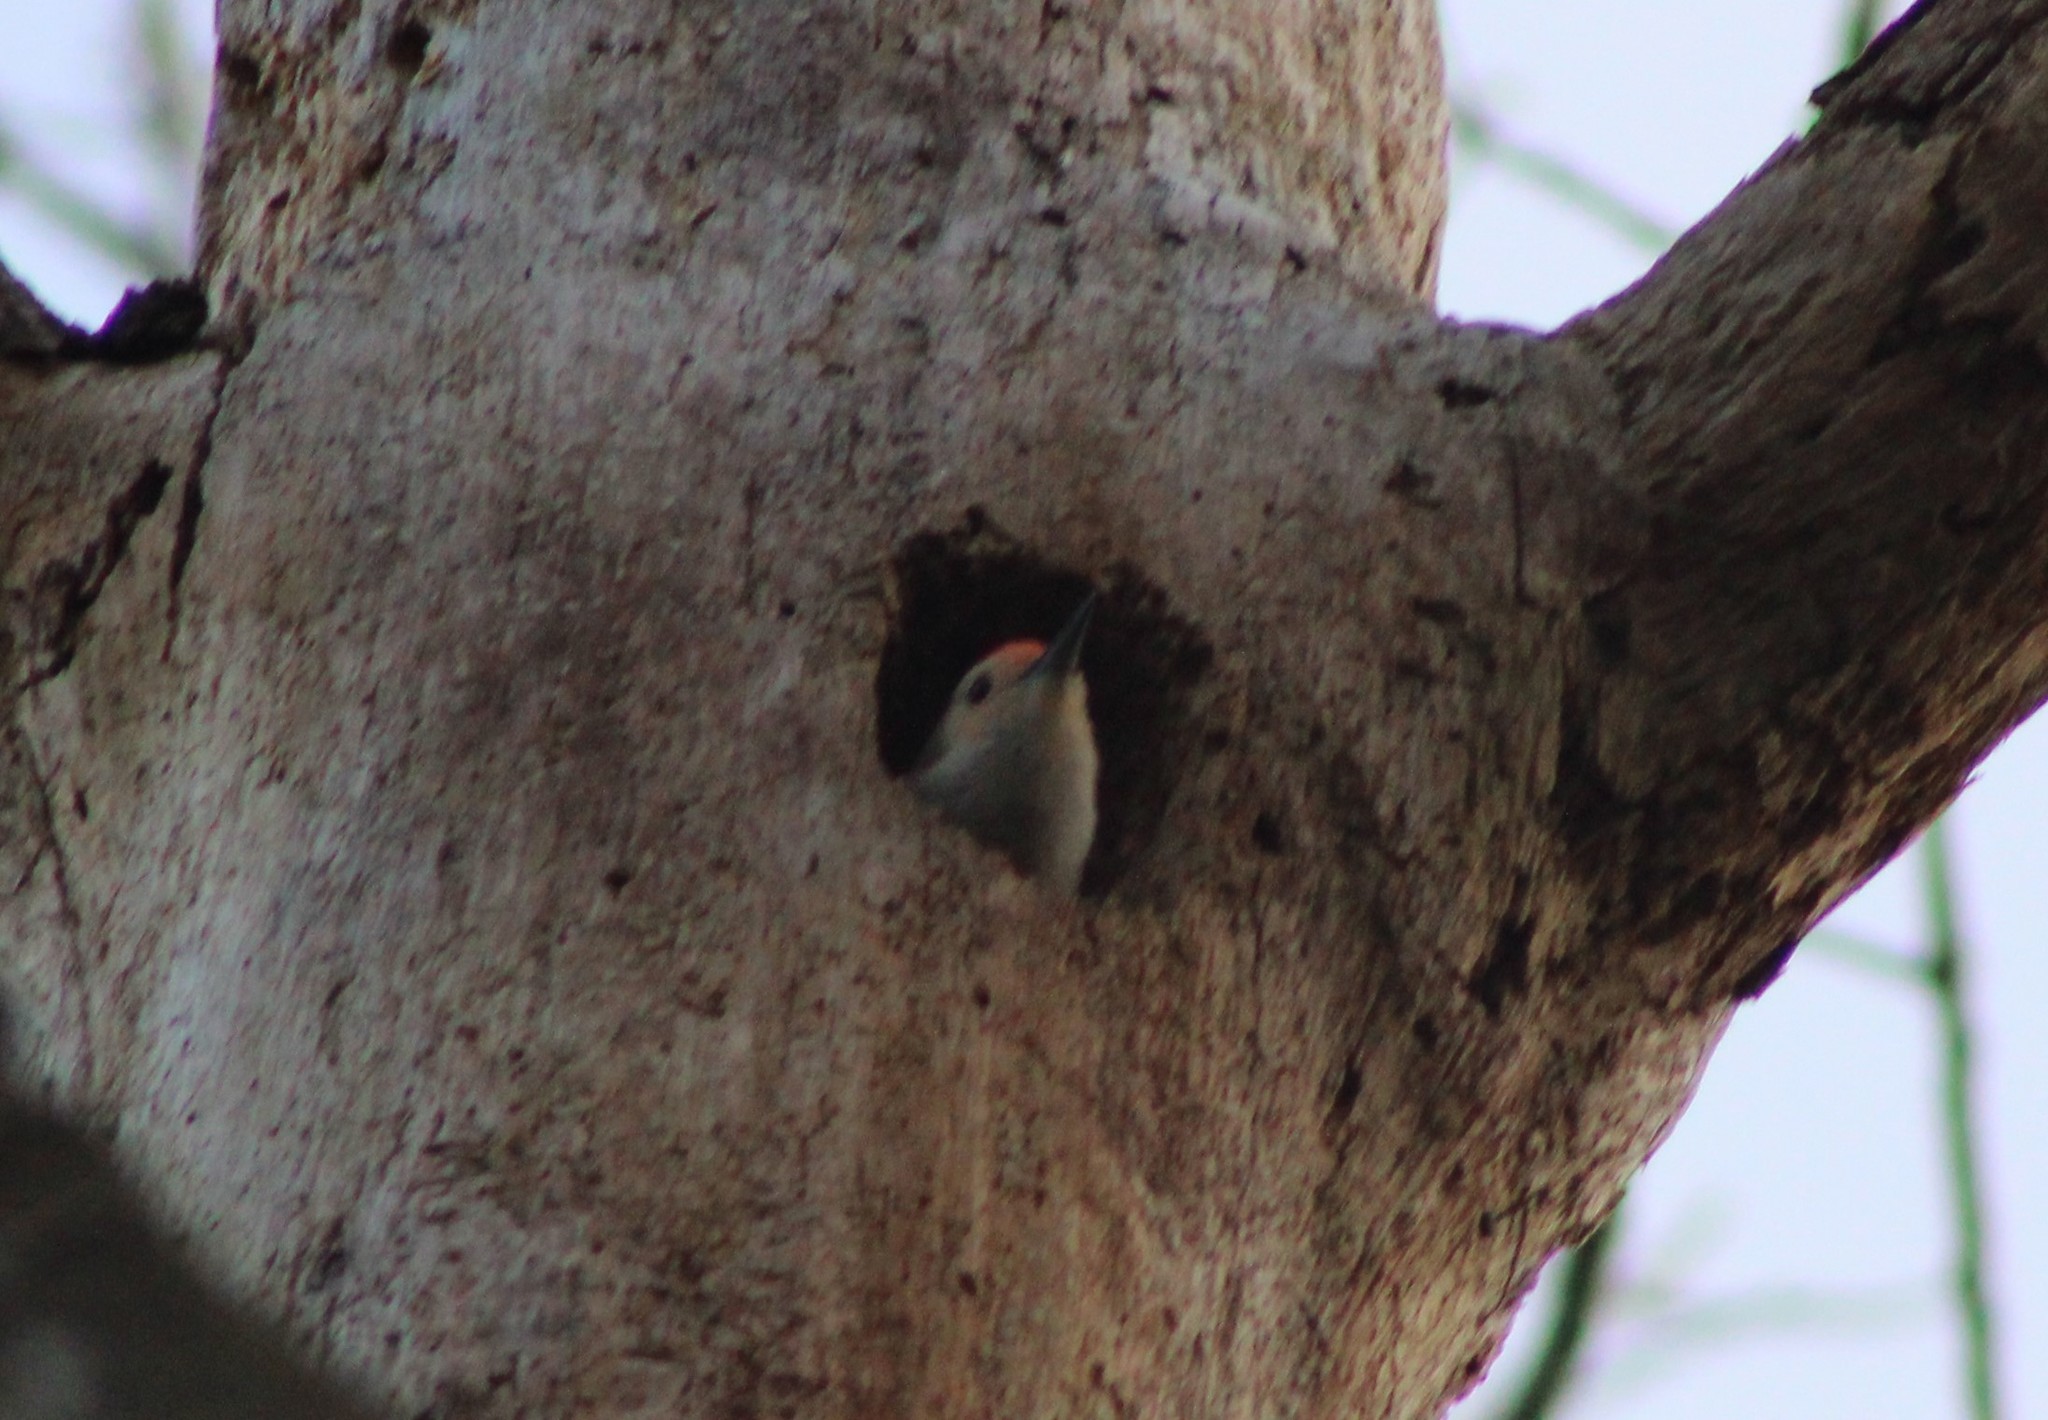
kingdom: Animalia
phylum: Chordata
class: Aves
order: Piciformes
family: Picidae
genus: Melanerpes
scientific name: Melanerpes carolinus
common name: Red-bellied woodpecker
